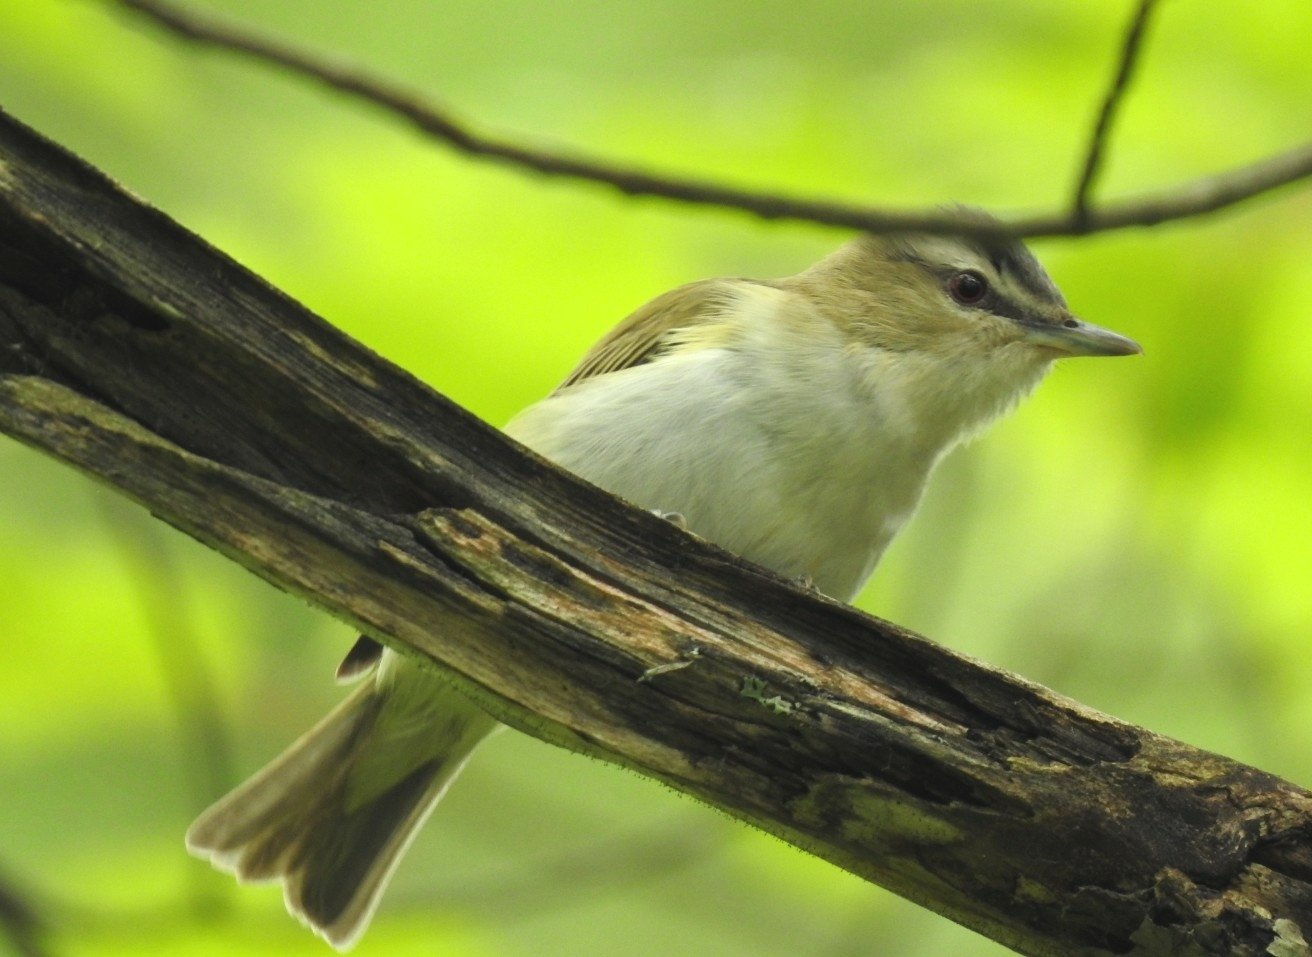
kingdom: Animalia
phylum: Chordata
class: Aves
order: Passeriformes
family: Vireonidae
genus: Vireo
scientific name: Vireo olivaceus
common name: Red-eyed vireo
